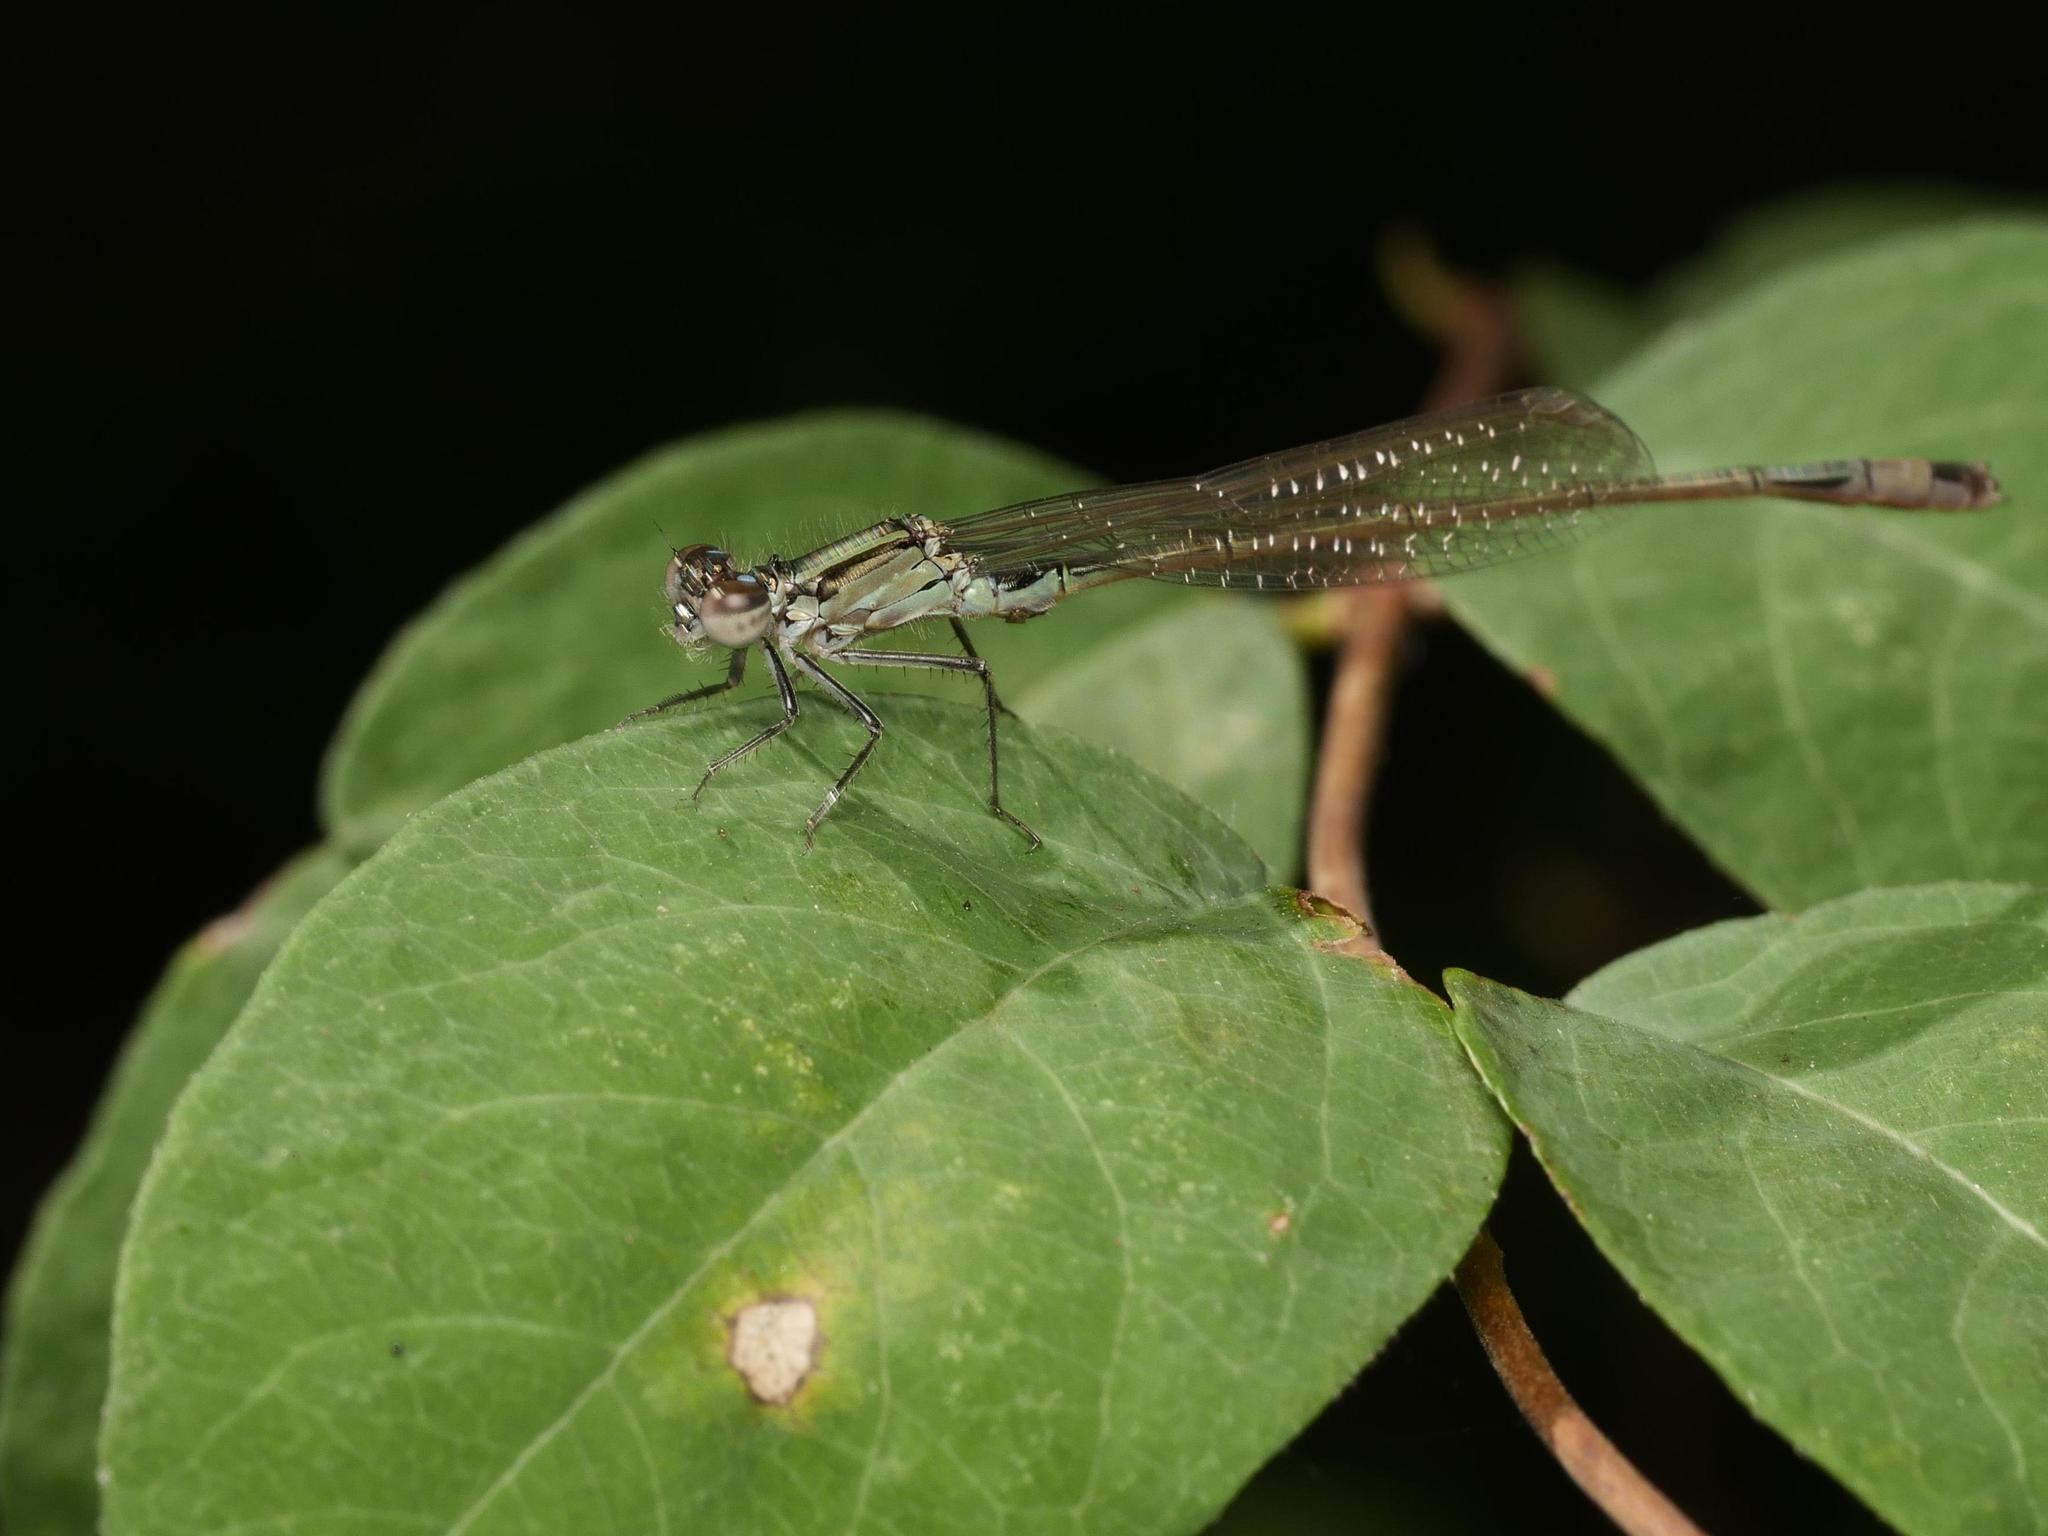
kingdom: Animalia
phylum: Arthropoda
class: Insecta
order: Odonata
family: Coenagrionidae
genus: Ischnura
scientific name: Ischnura elegans
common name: Blue-tailed damselfly
